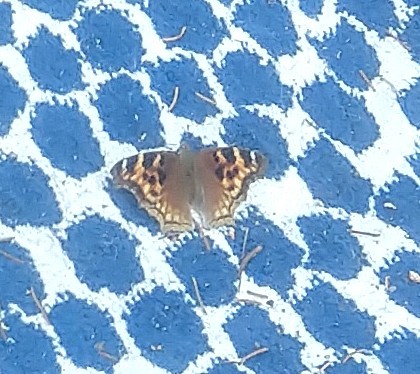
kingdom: Animalia
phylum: Arthropoda
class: Insecta
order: Lepidoptera
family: Nymphalidae
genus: Polygonia
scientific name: Polygonia vaualbum
